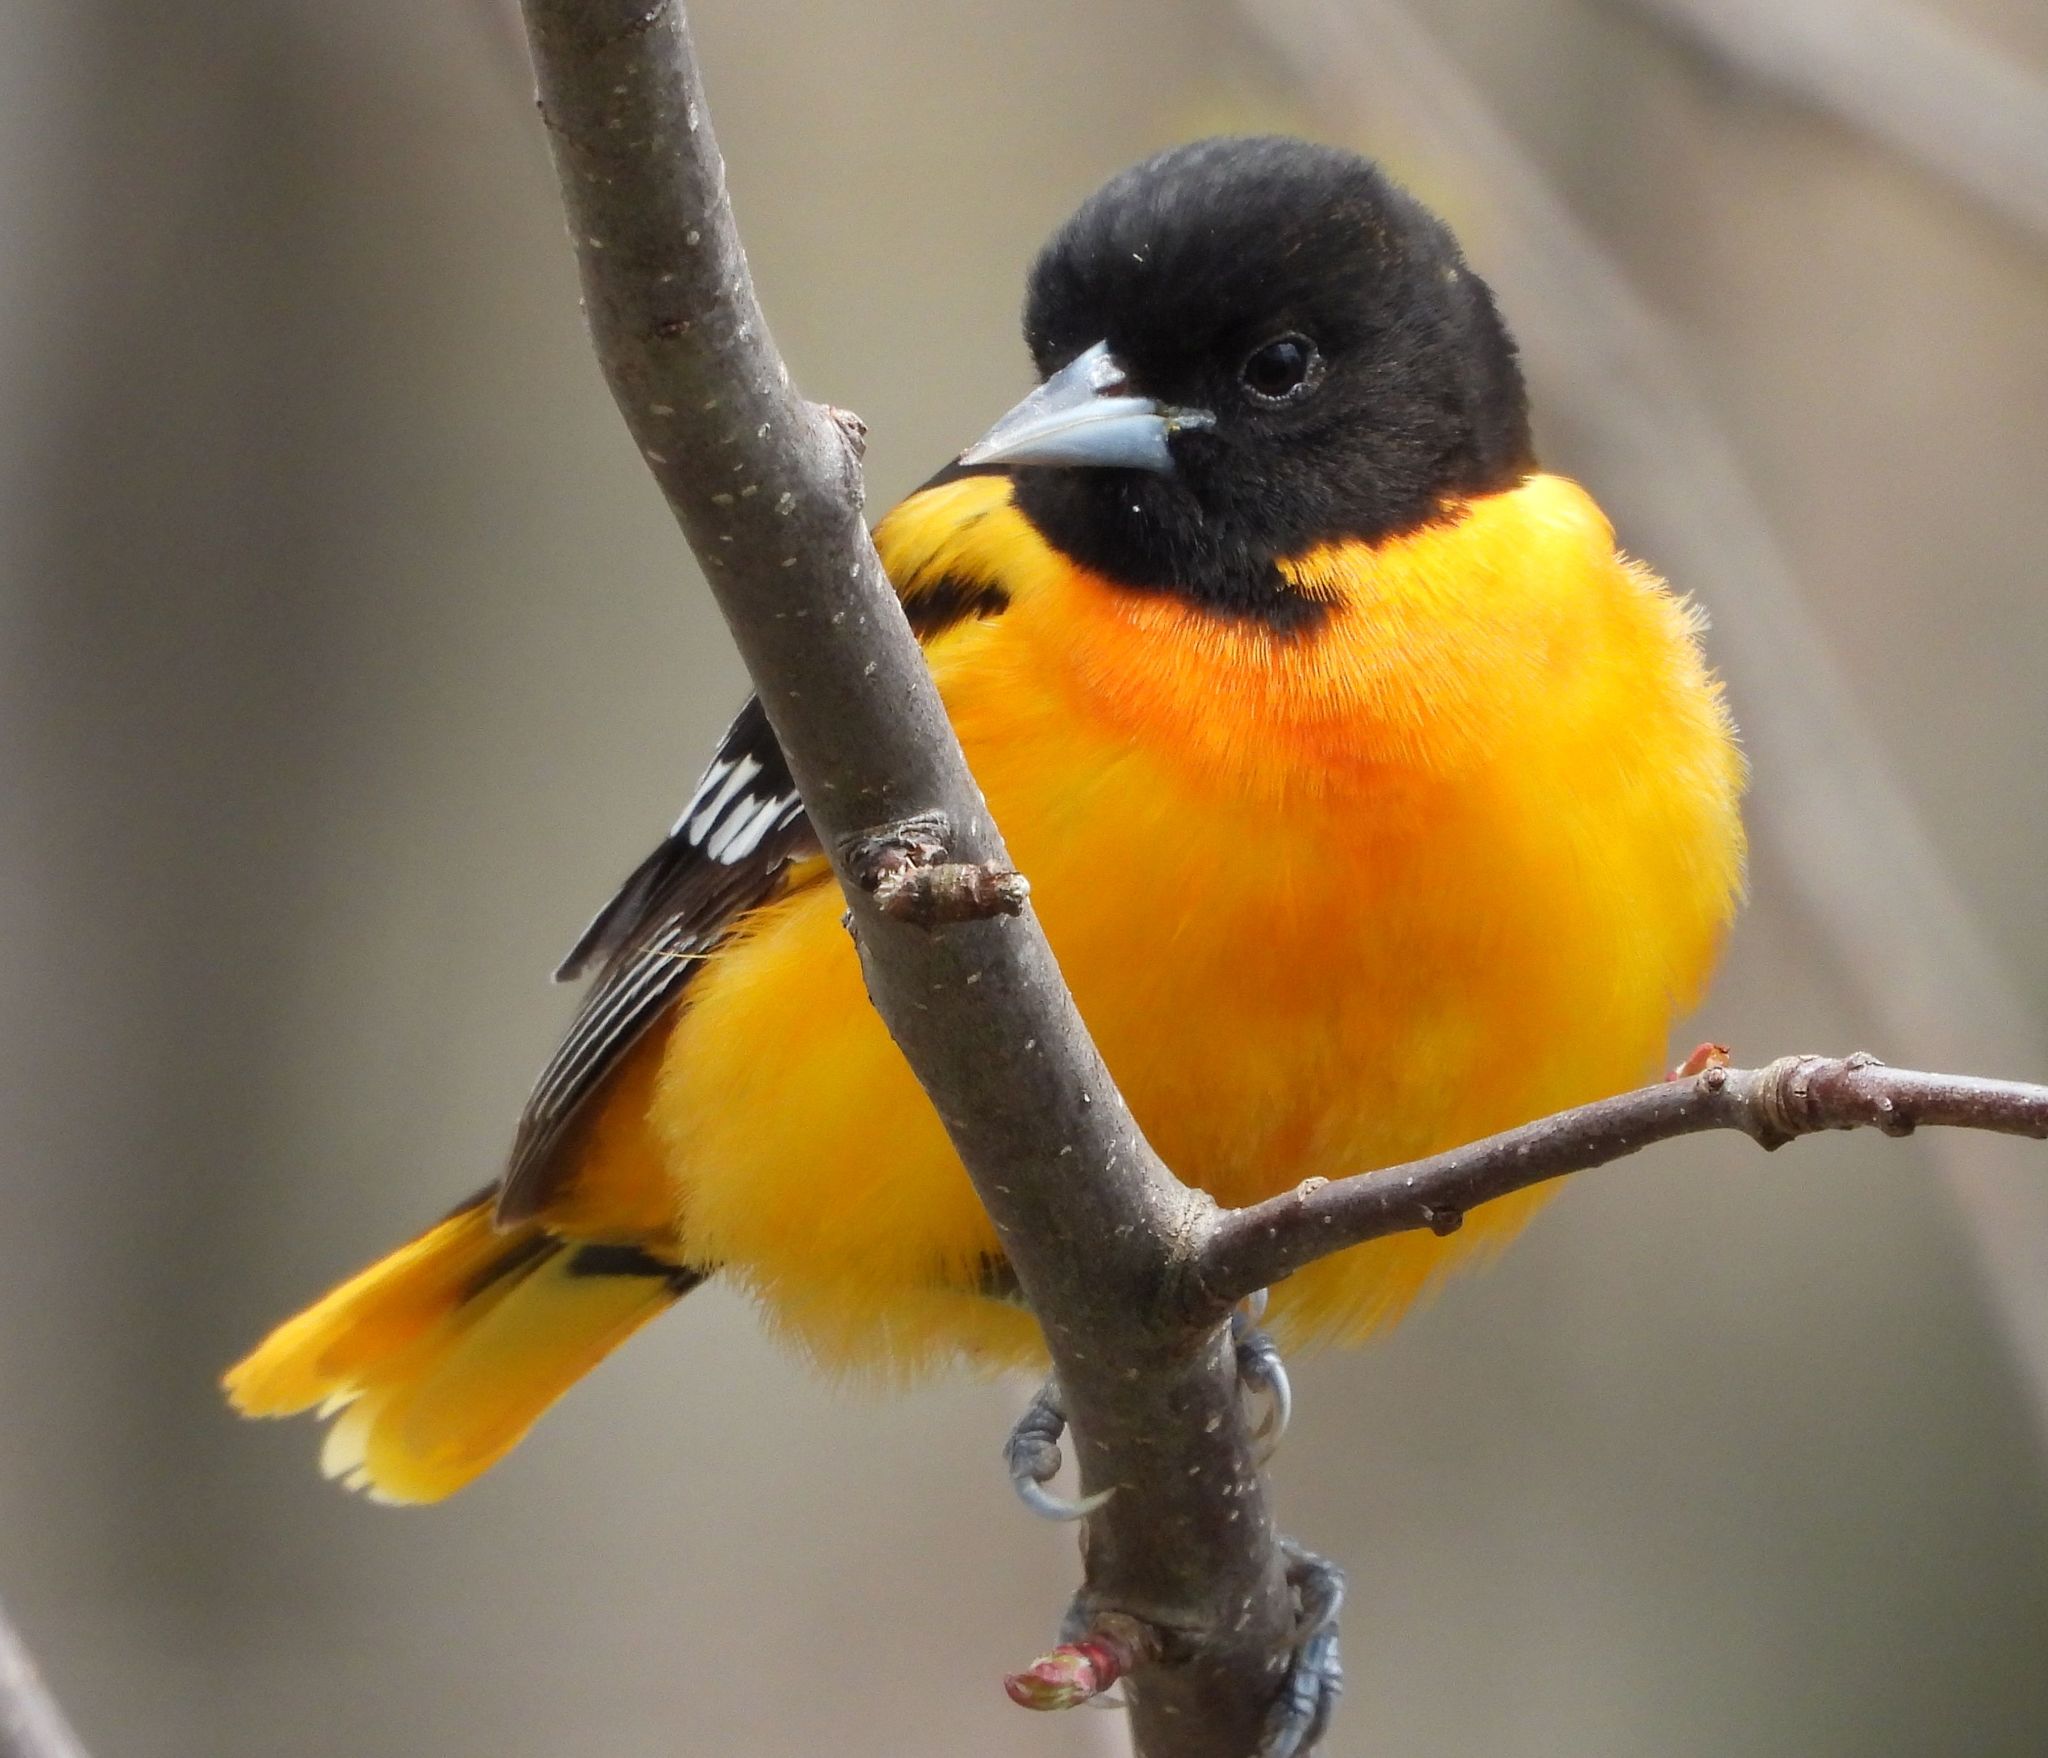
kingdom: Animalia
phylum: Chordata
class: Aves
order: Passeriformes
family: Icteridae
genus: Icterus
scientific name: Icterus galbula
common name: Baltimore oriole
